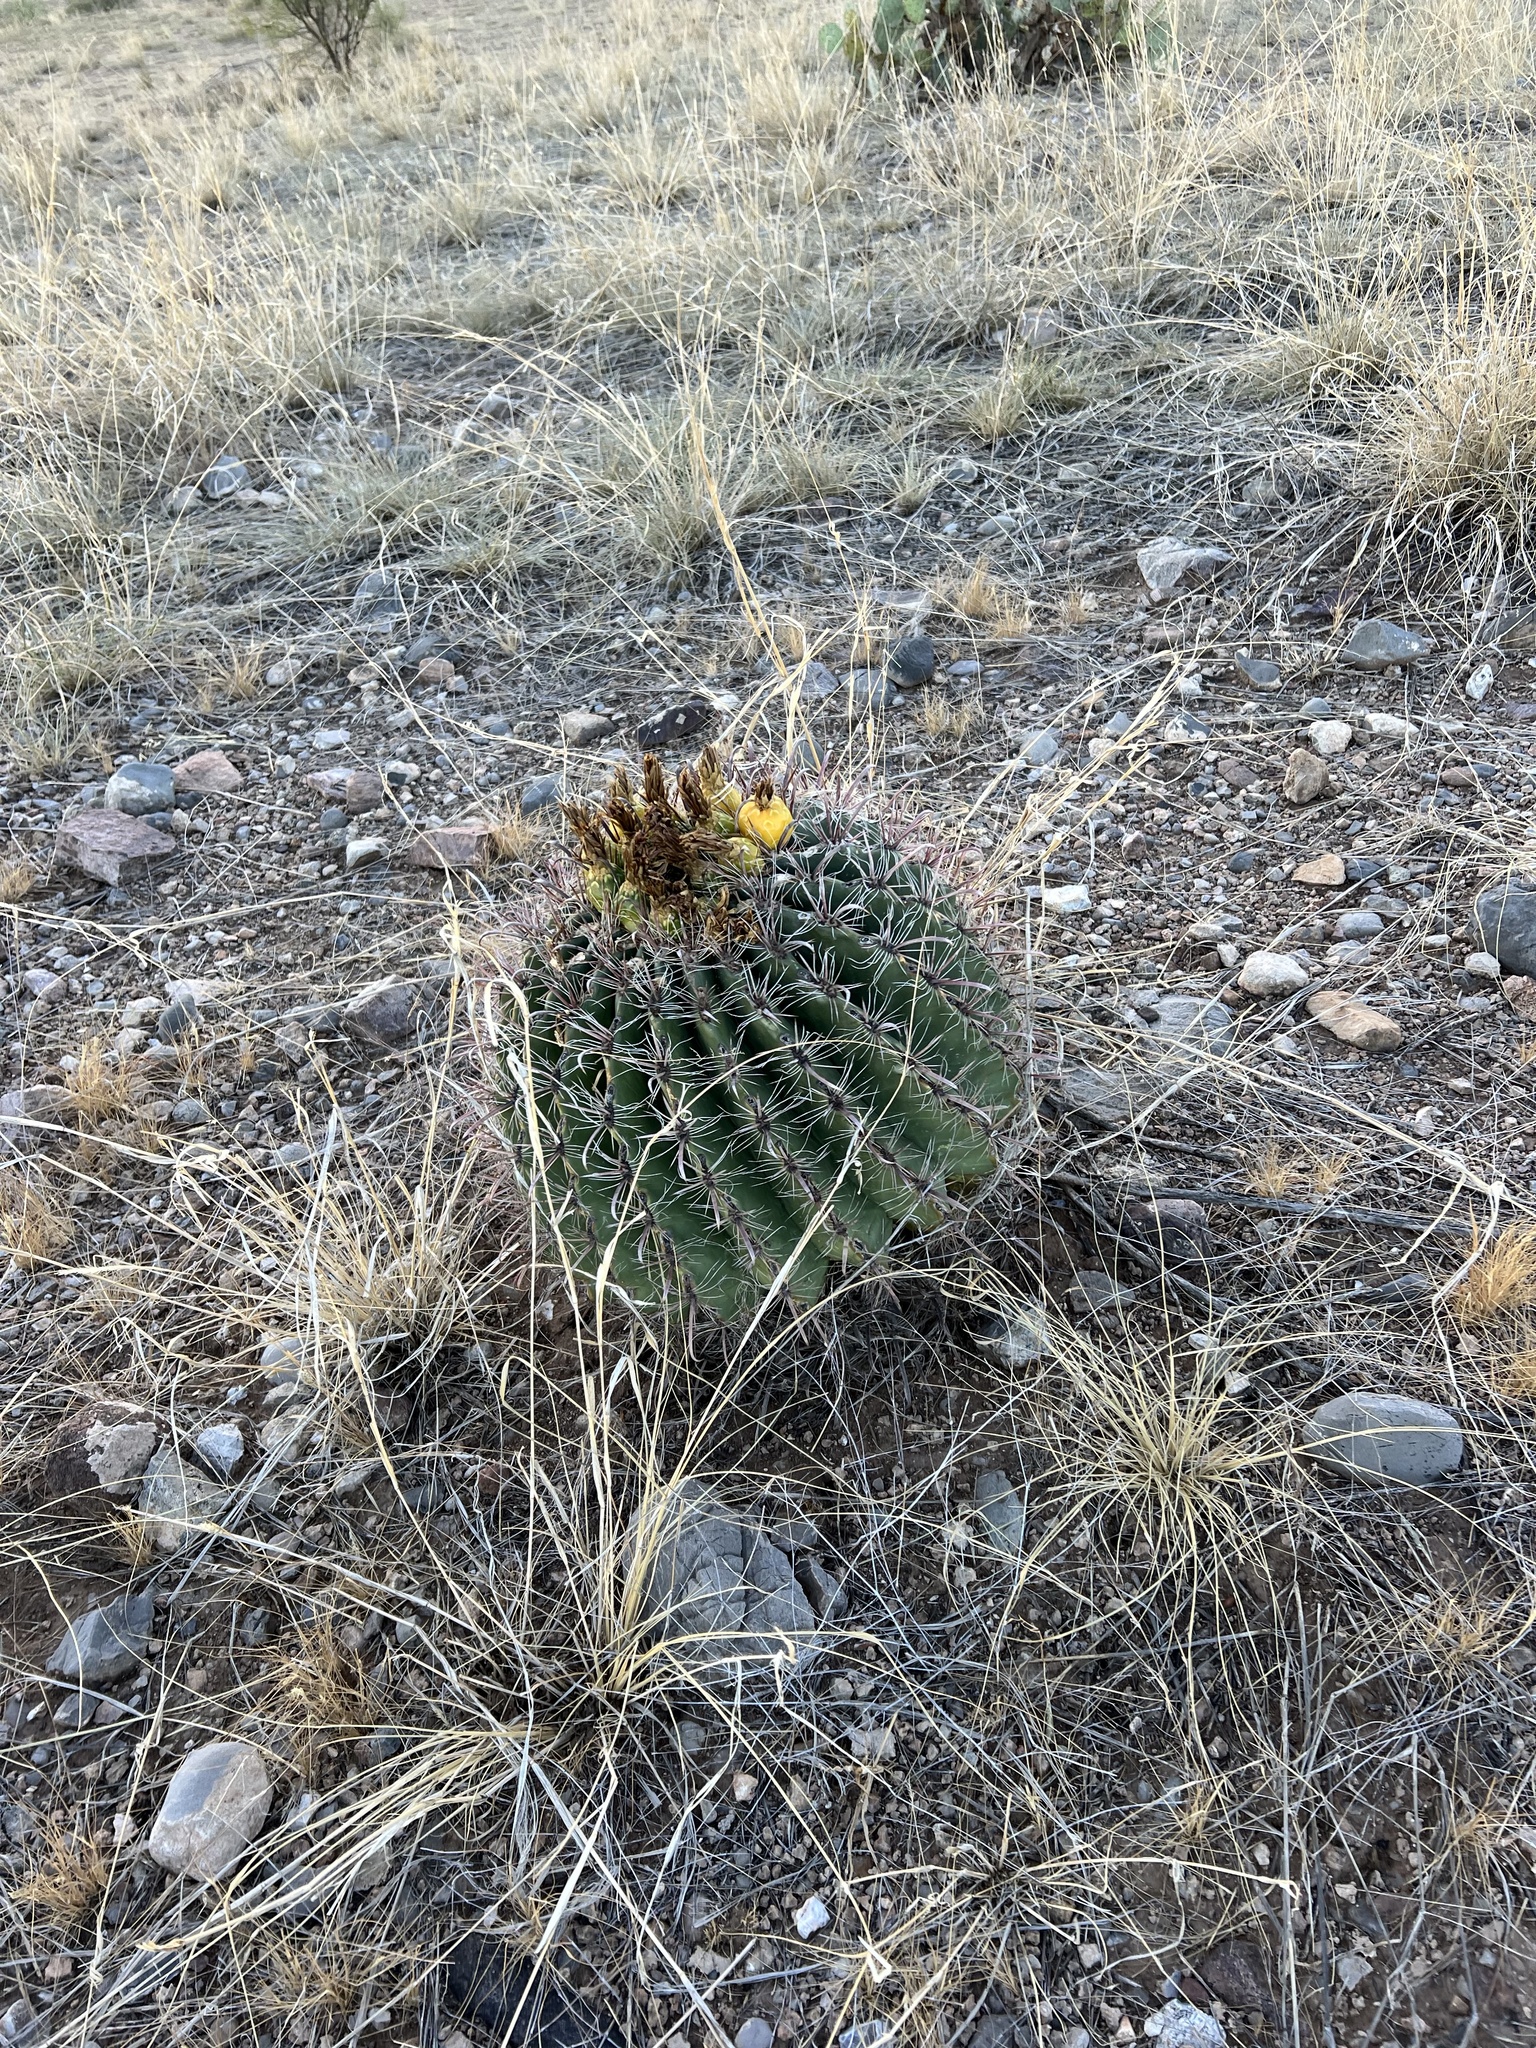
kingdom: Plantae
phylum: Tracheophyta
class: Magnoliopsida
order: Caryophyllales
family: Cactaceae
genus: Ferocactus
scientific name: Ferocactus wislizeni
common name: Candy barrel cactus
